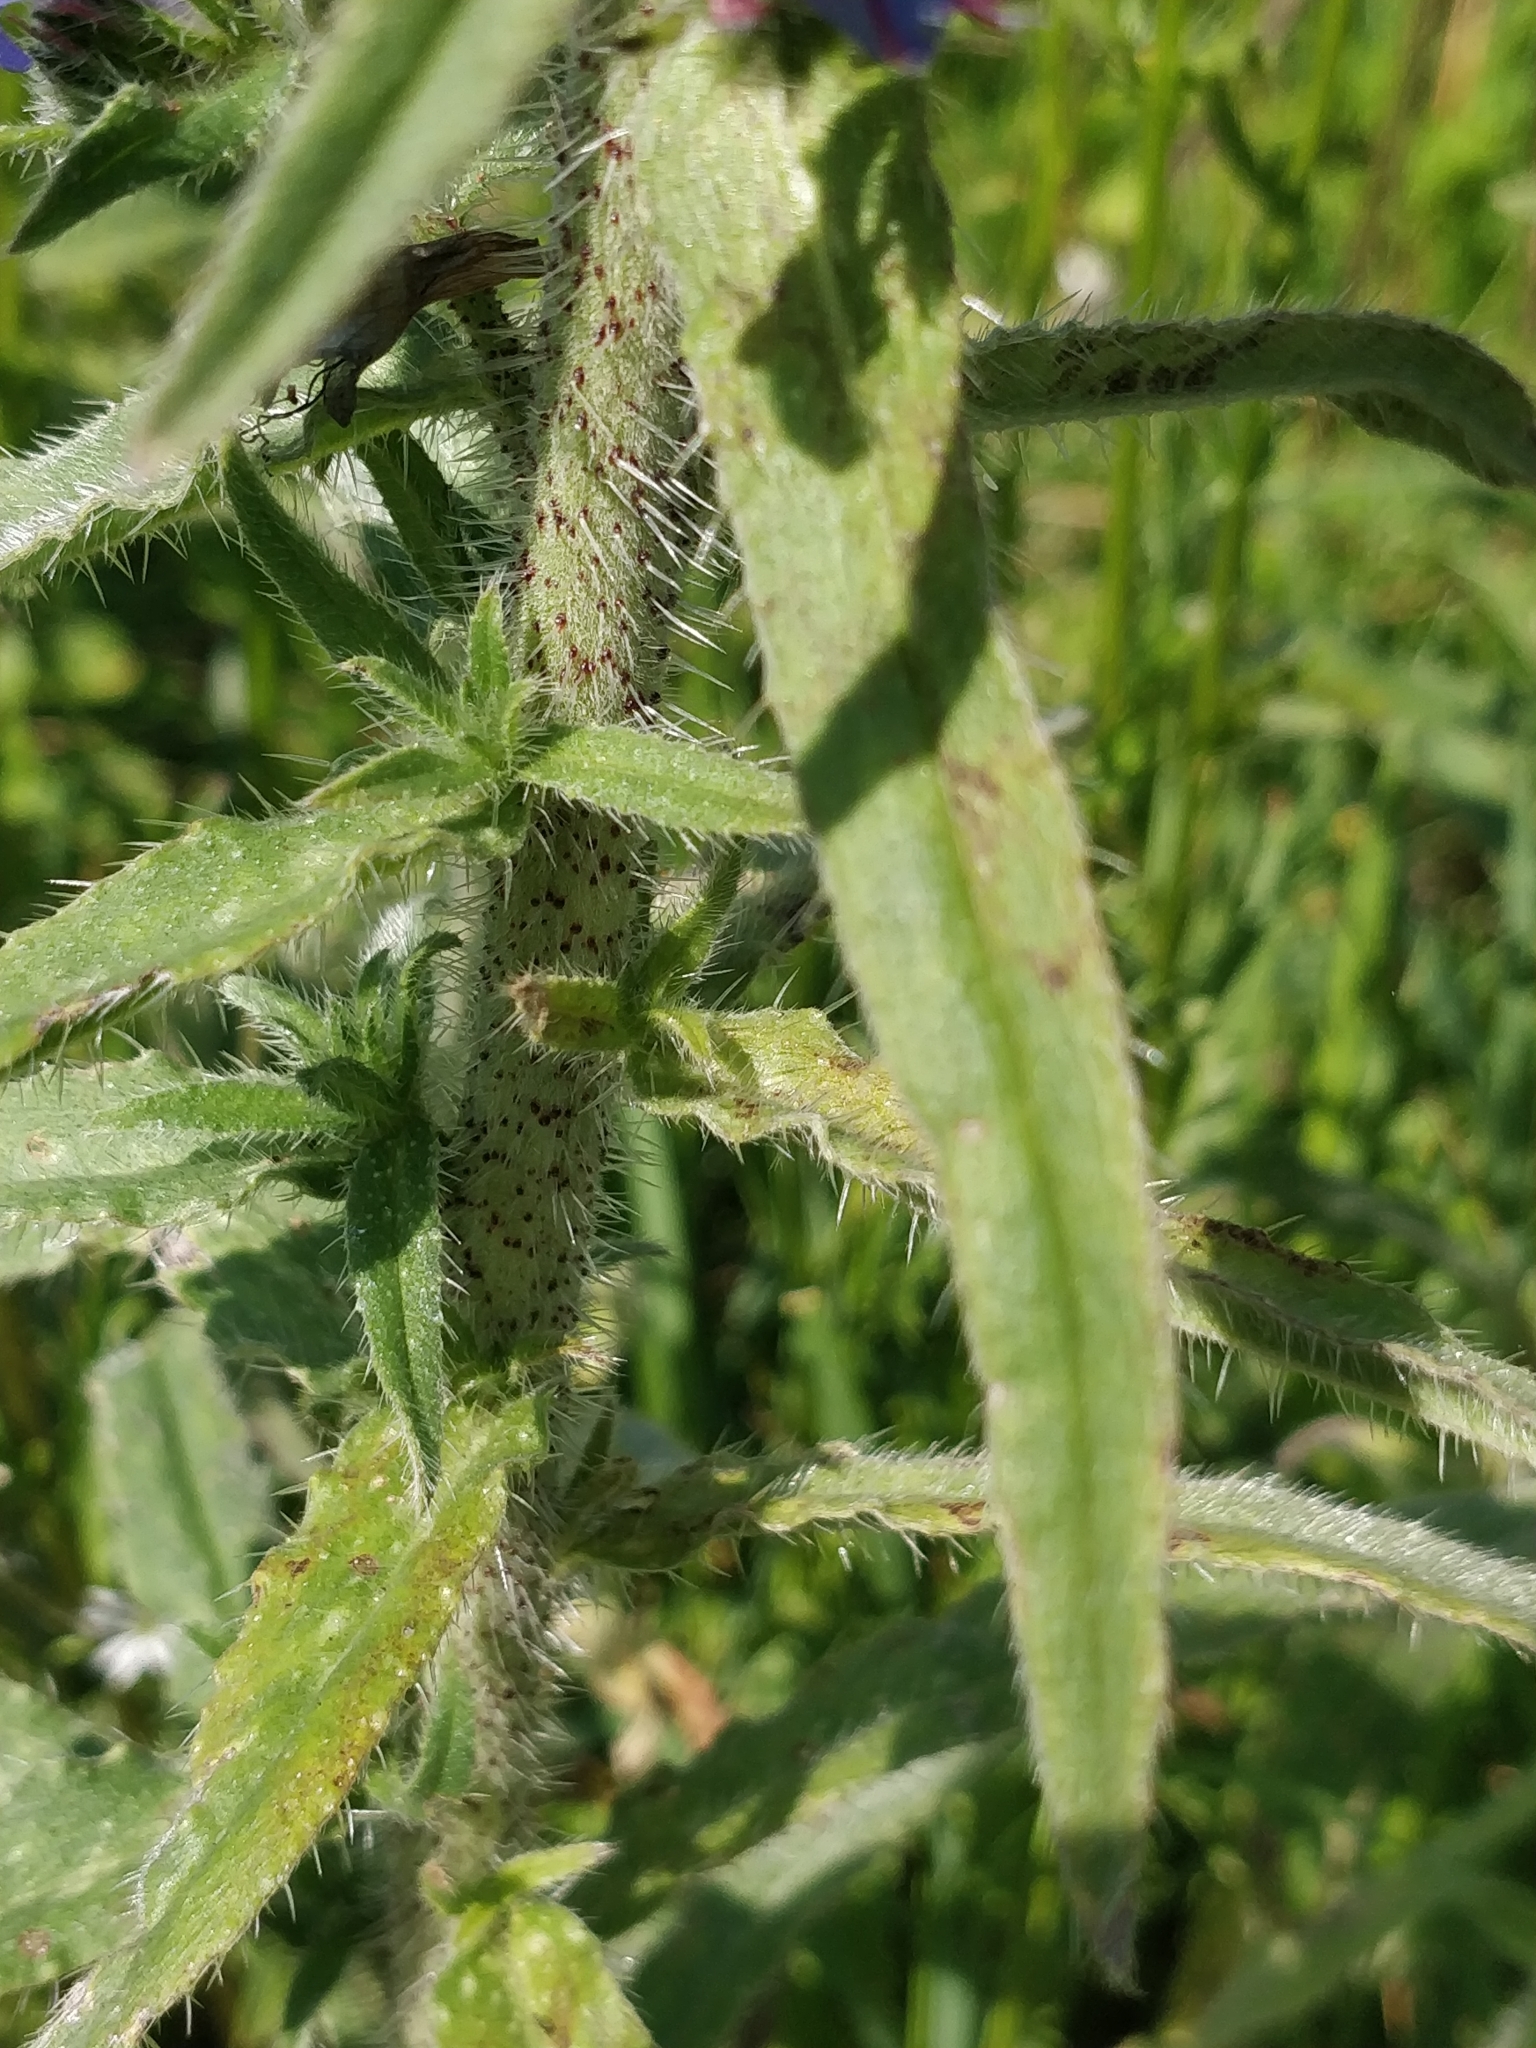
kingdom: Plantae
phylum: Tracheophyta
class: Magnoliopsida
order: Boraginales
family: Boraginaceae
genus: Echium
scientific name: Echium vulgare
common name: Common viper's bugloss
